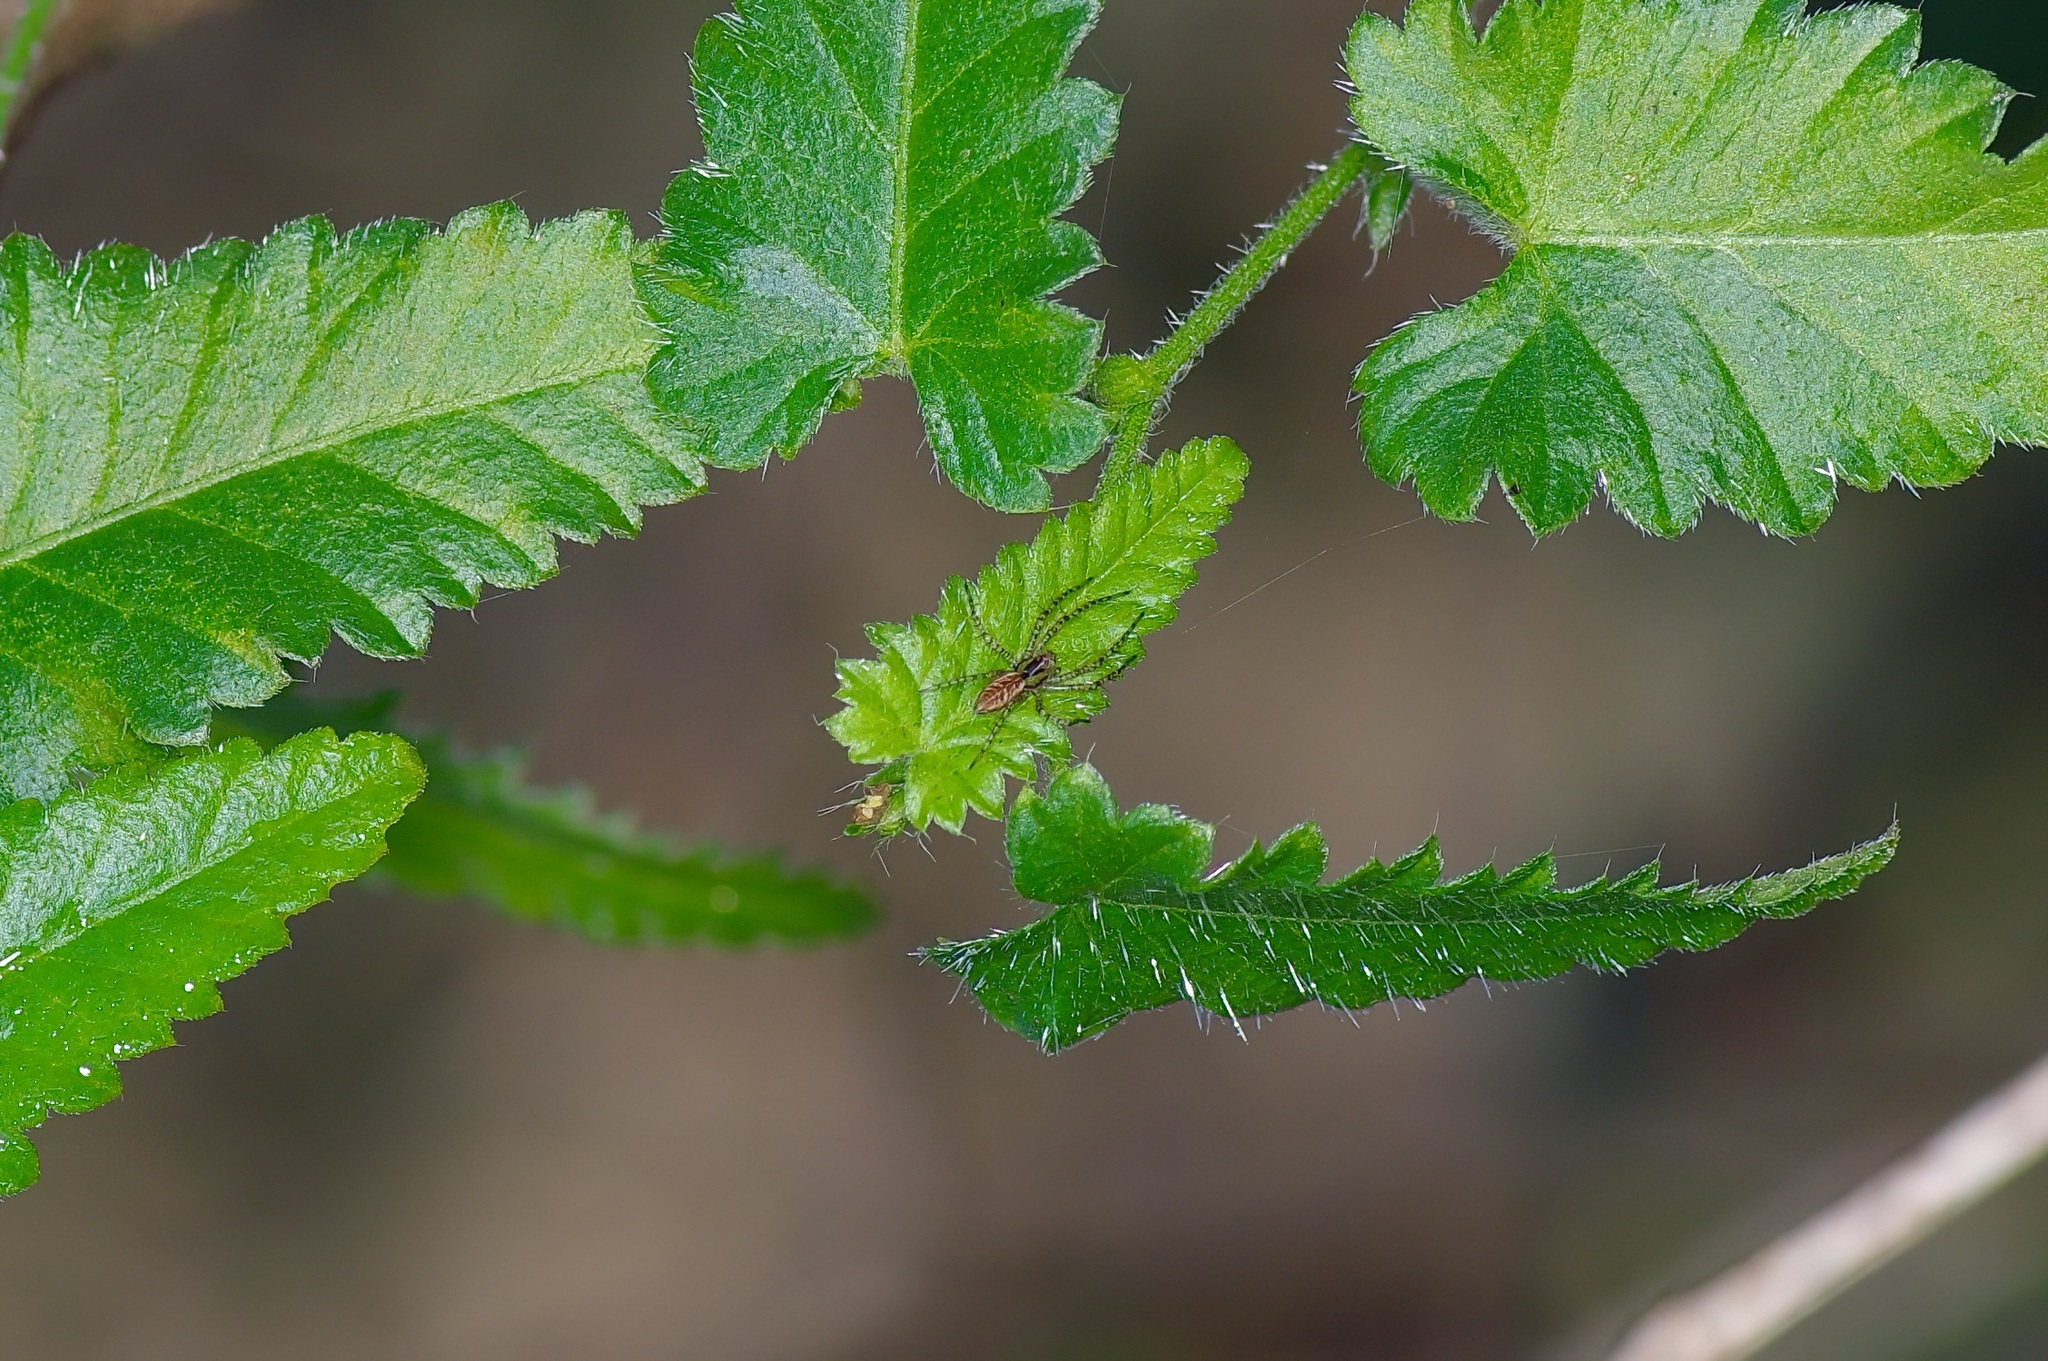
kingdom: Animalia
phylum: Arthropoda
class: Arachnida
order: Araneae
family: Oxyopidae
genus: Peucetia
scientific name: Peucetia viridans
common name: Lynx spiders
